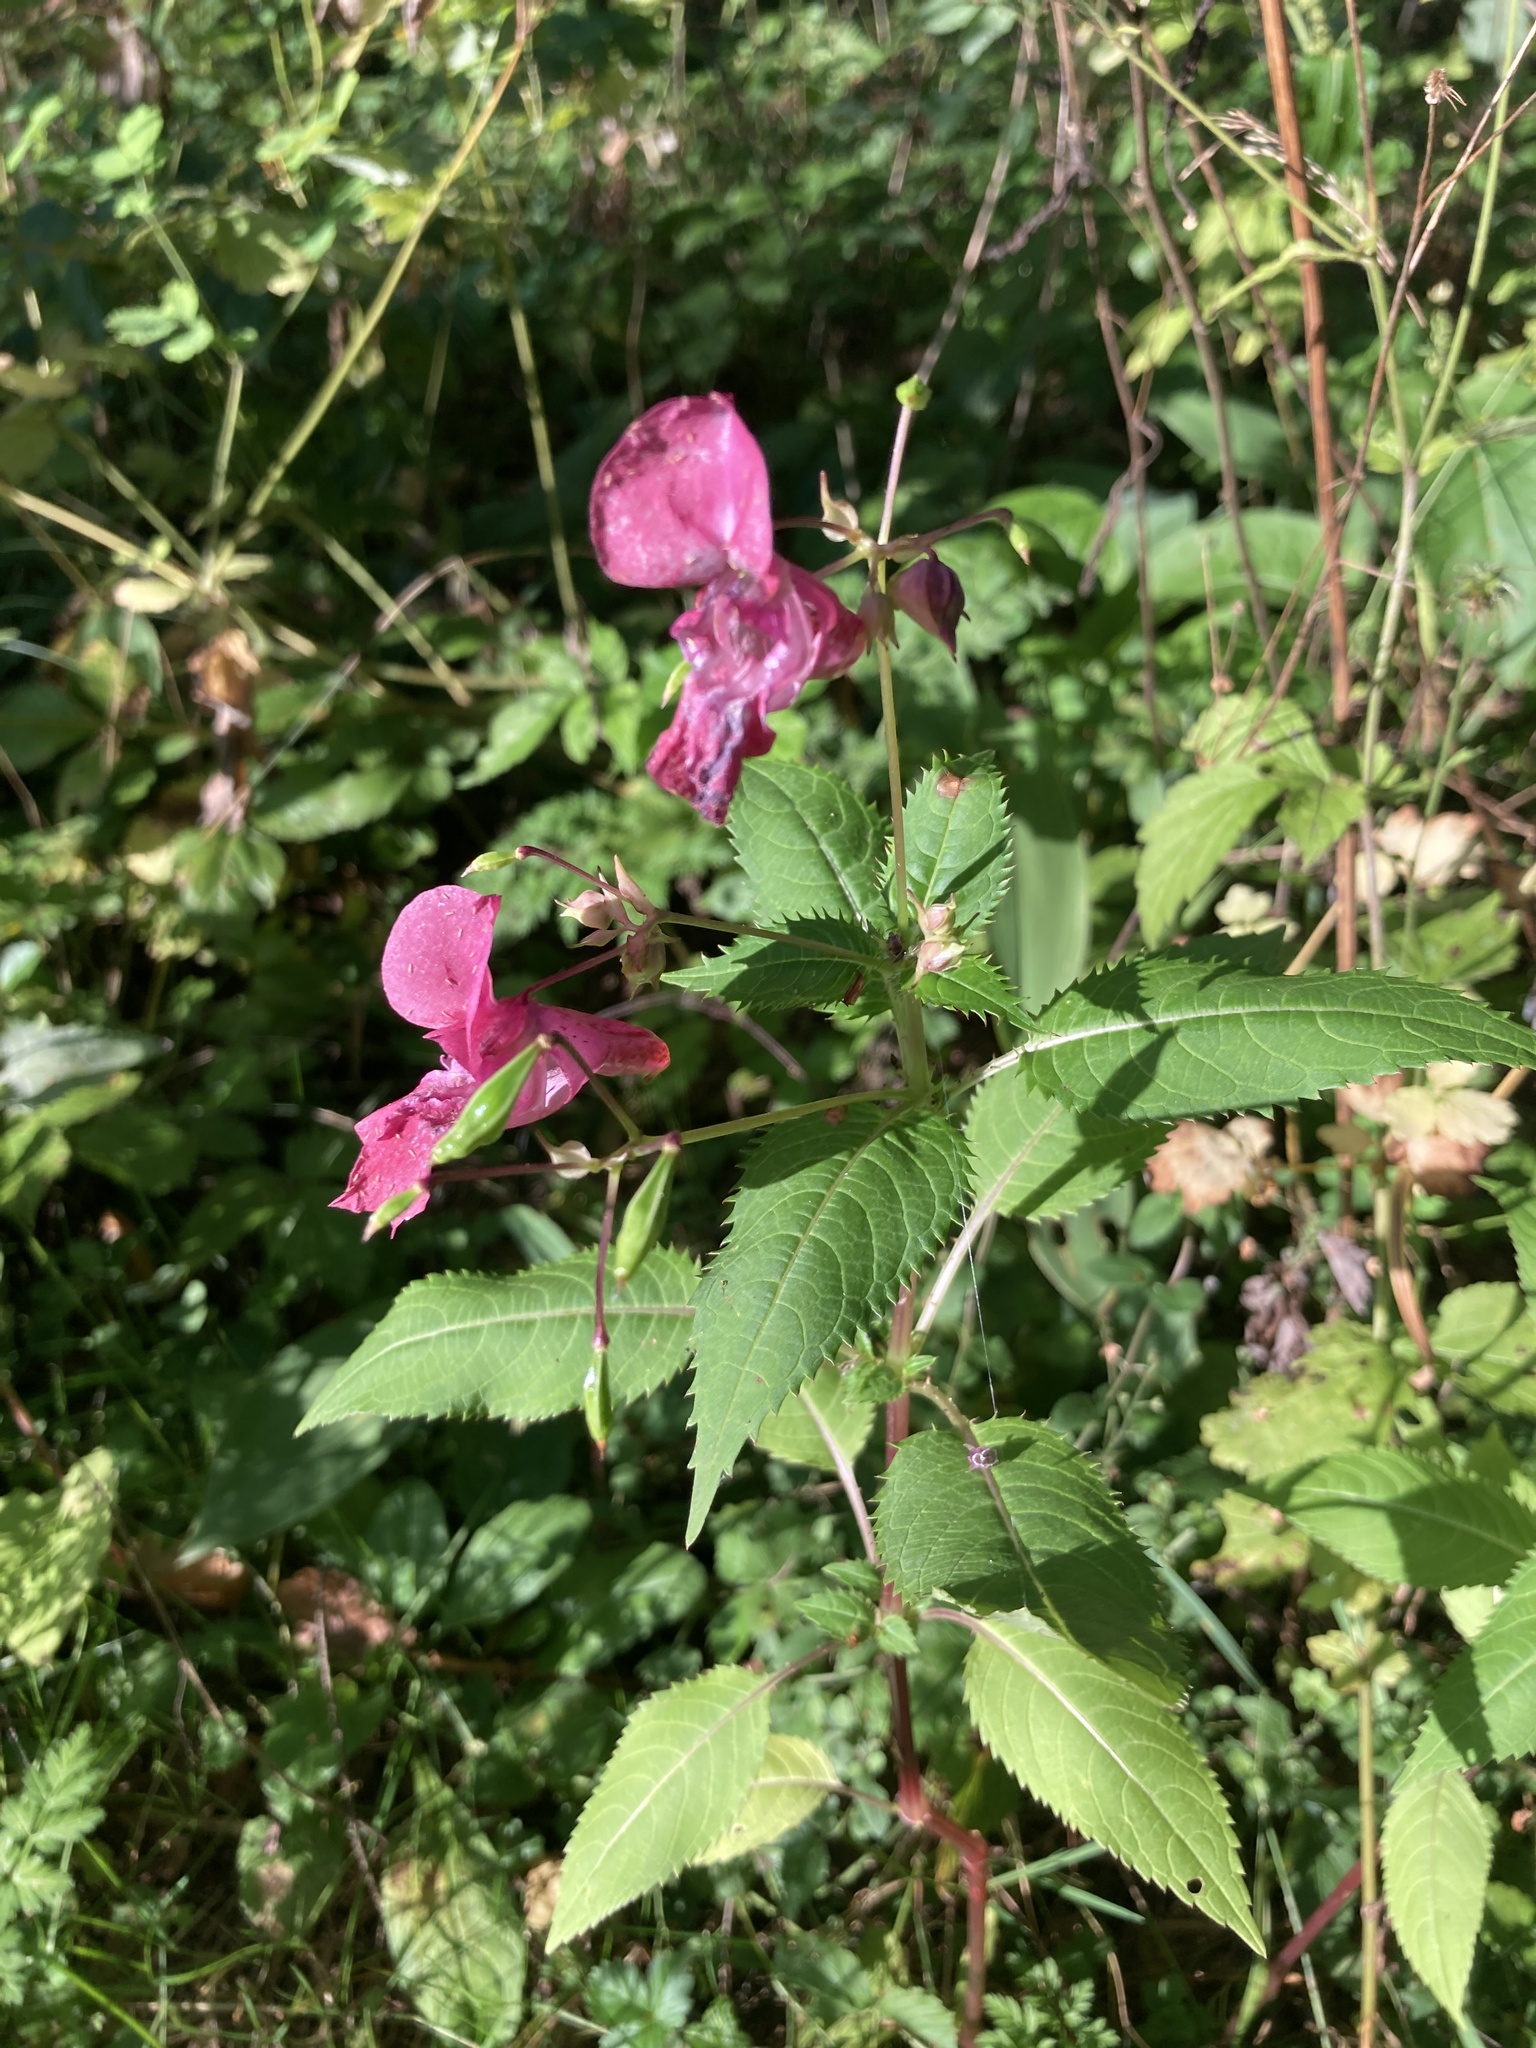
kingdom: Plantae
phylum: Tracheophyta
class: Magnoliopsida
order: Ericales
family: Balsaminaceae
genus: Impatiens
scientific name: Impatiens glandulifera
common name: Himalayan balsam
